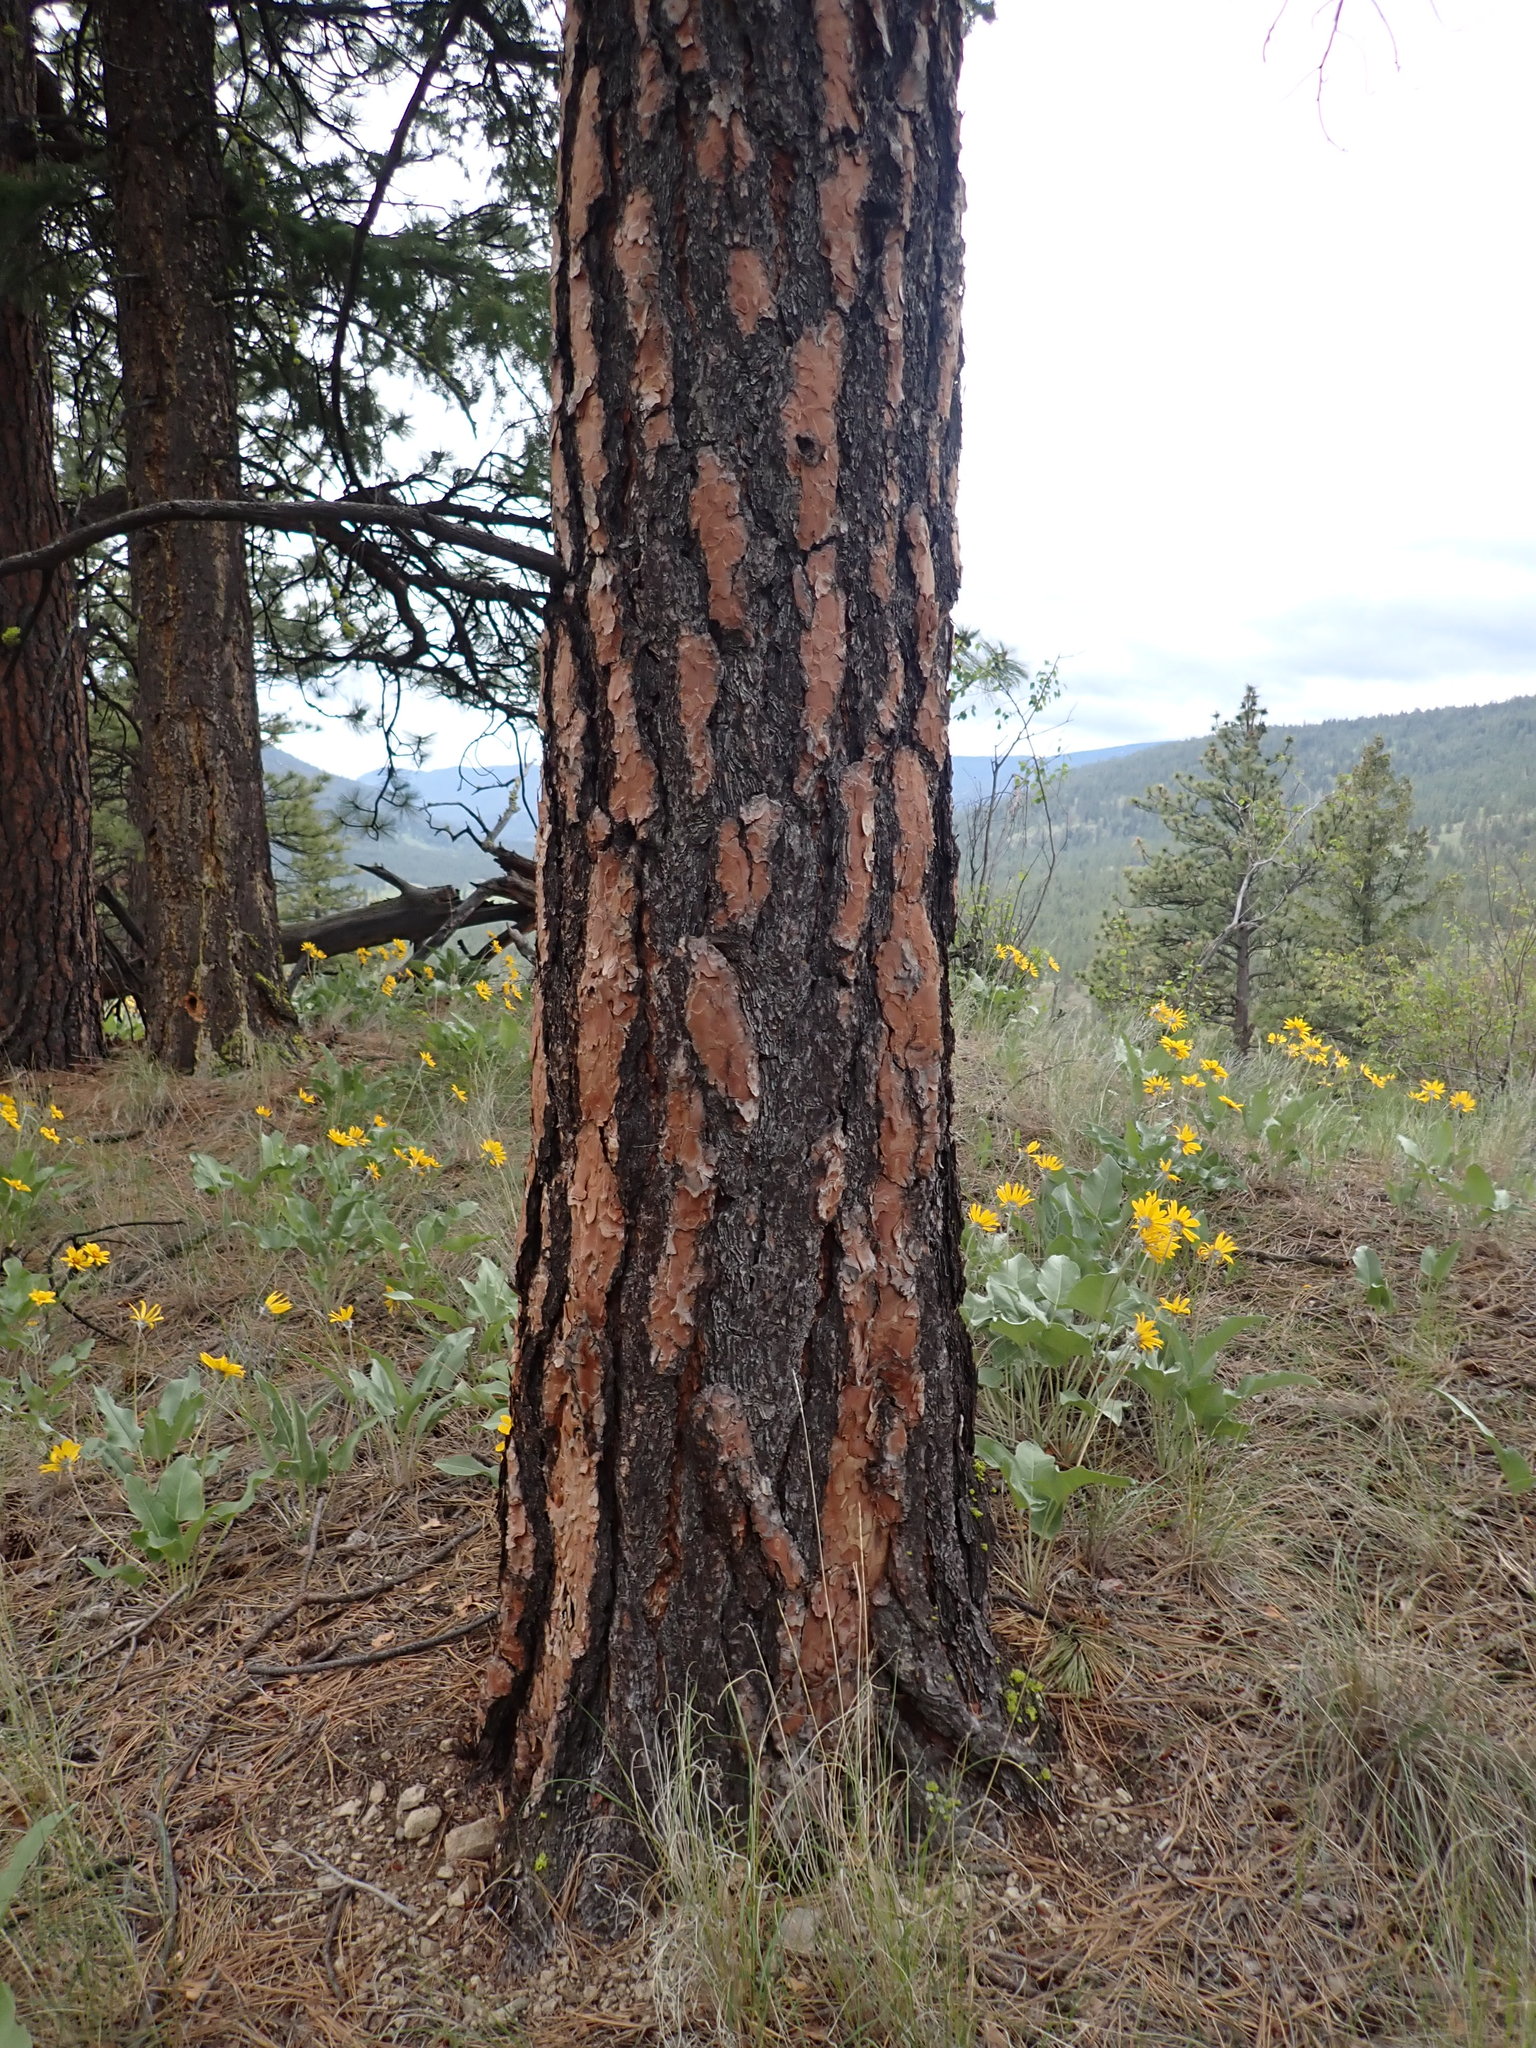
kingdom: Plantae
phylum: Tracheophyta
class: Pinopsida
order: Pinales
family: Pinaceae
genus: Pinus
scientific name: Pinus ponderosa
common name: Western yellow-pine
